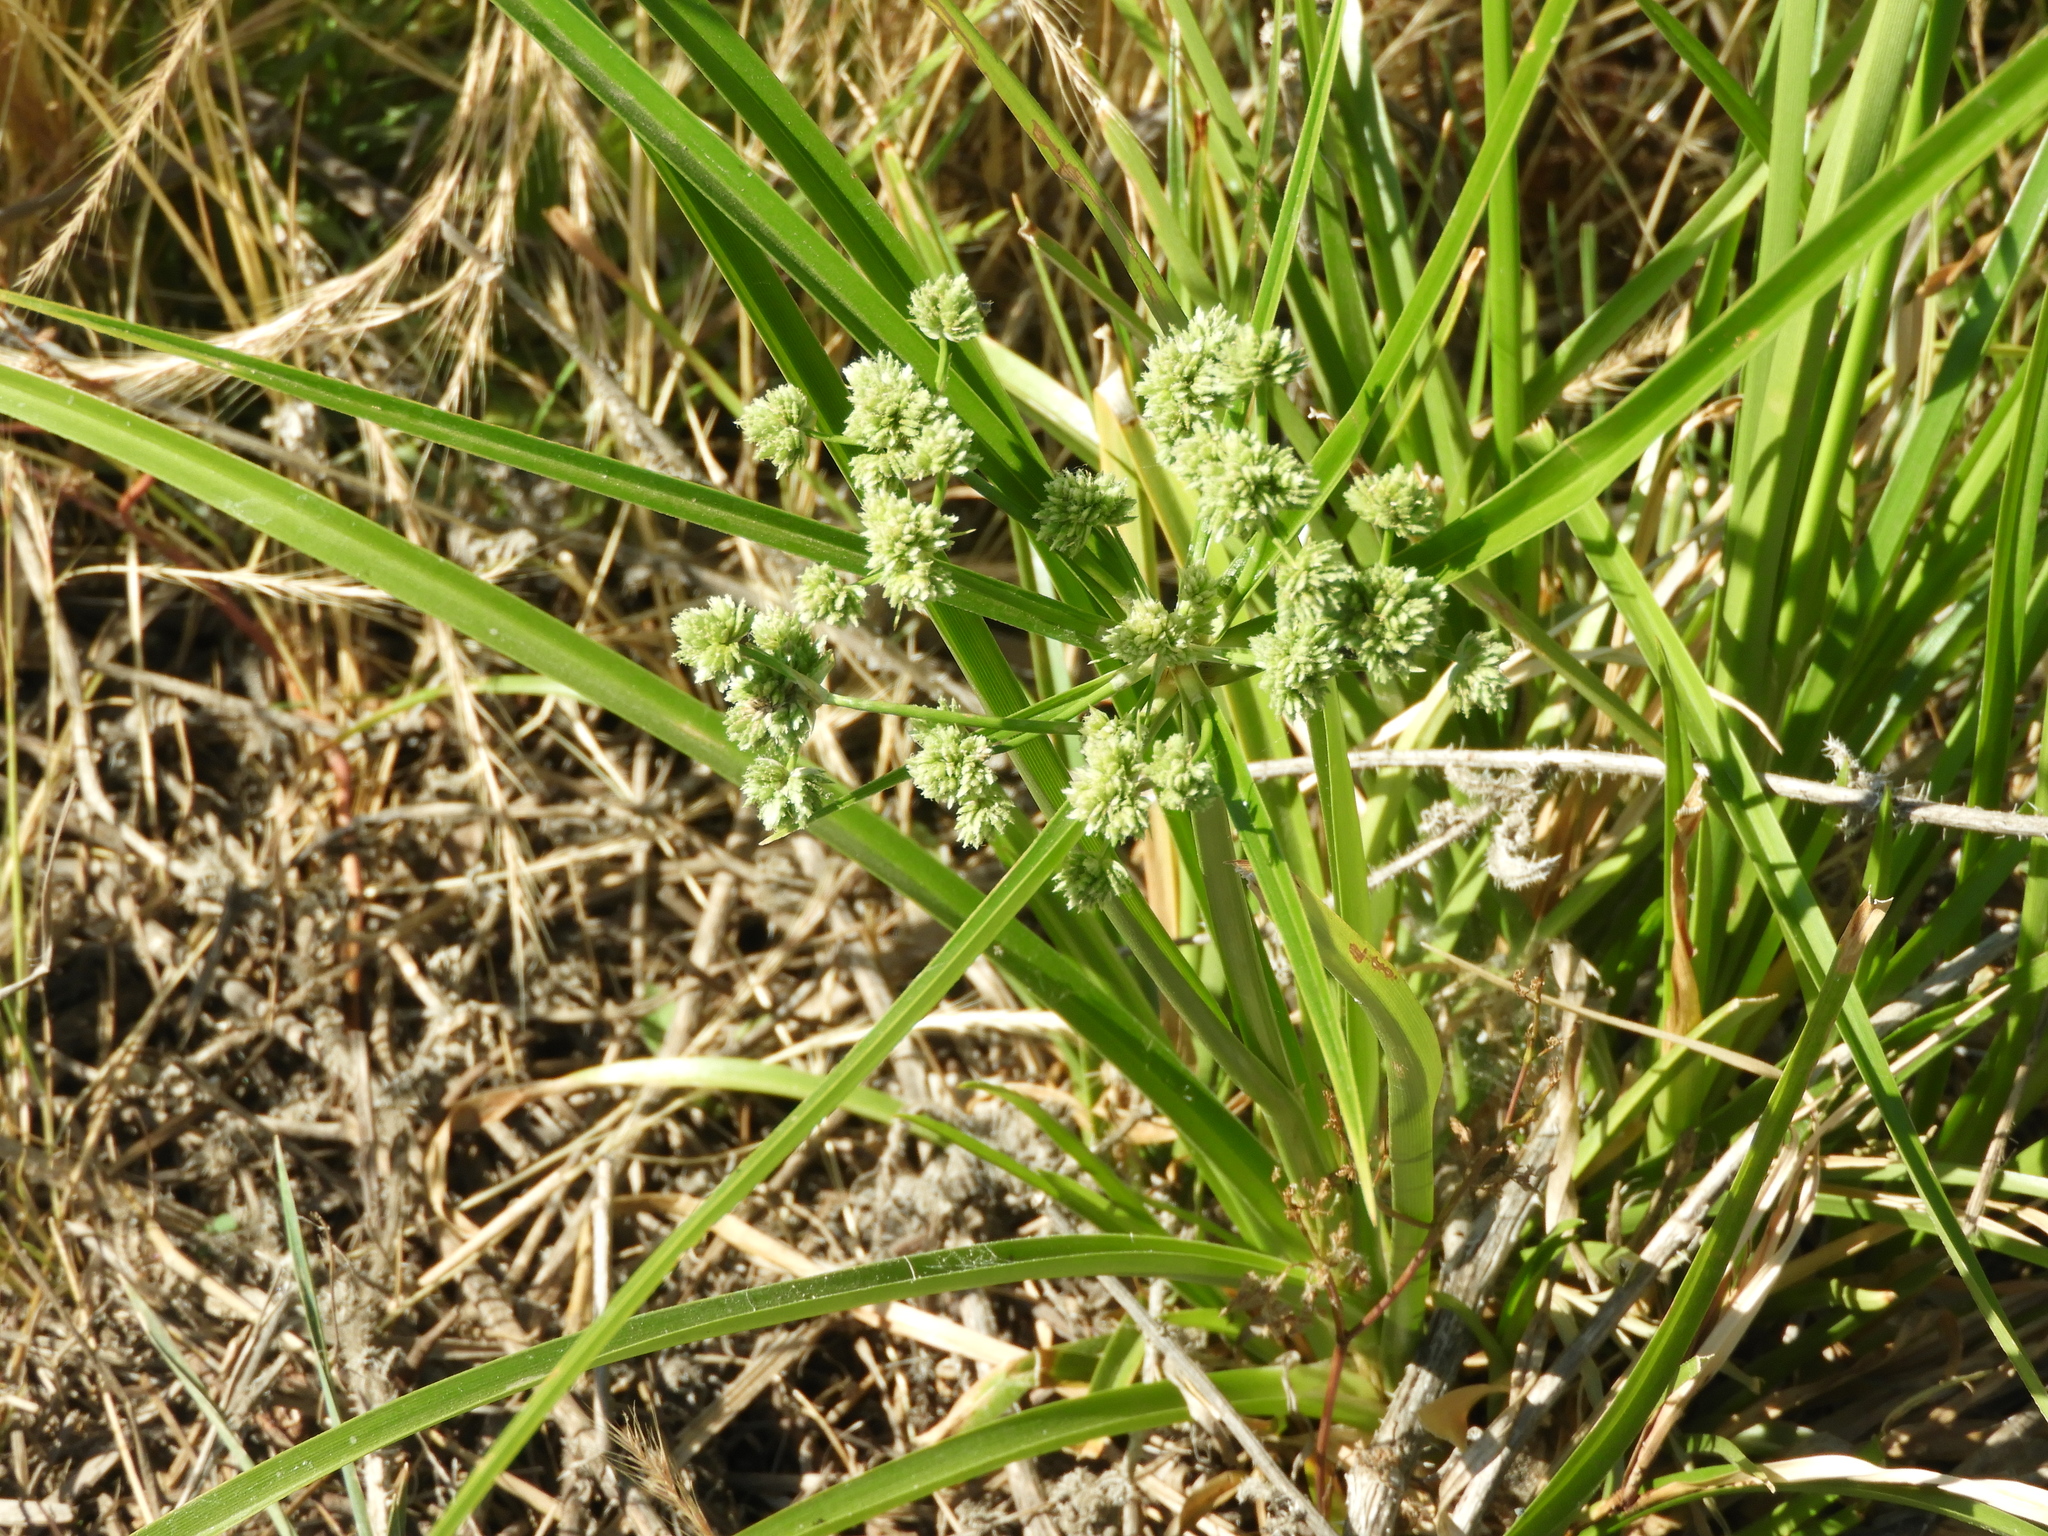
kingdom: Plantae
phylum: Tracheophyta
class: Liliopsida
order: Poales
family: Cyperaceae
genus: Cyperus
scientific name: Cyperus eragrostis
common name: Tall flatsedge
